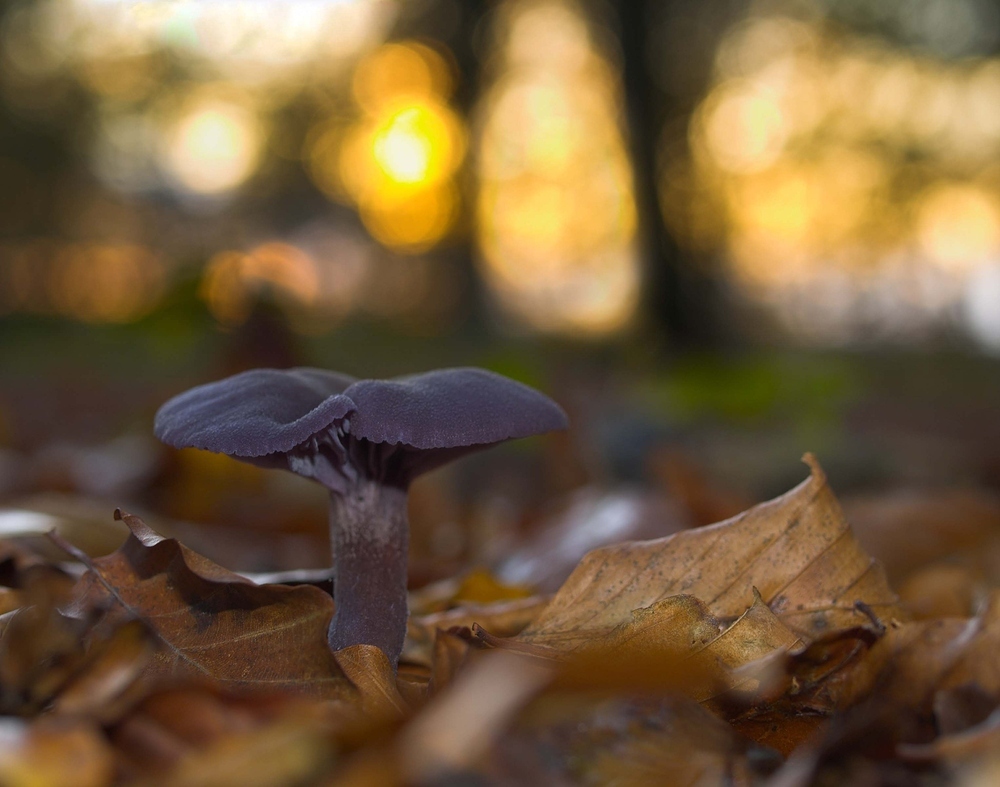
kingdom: Fungi
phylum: Basidiomycota
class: Agaricomycetes
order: Agaricales
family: Hydnangiaceae
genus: Laccaria
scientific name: Laccaria amethystina
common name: Amethyst deceiver
